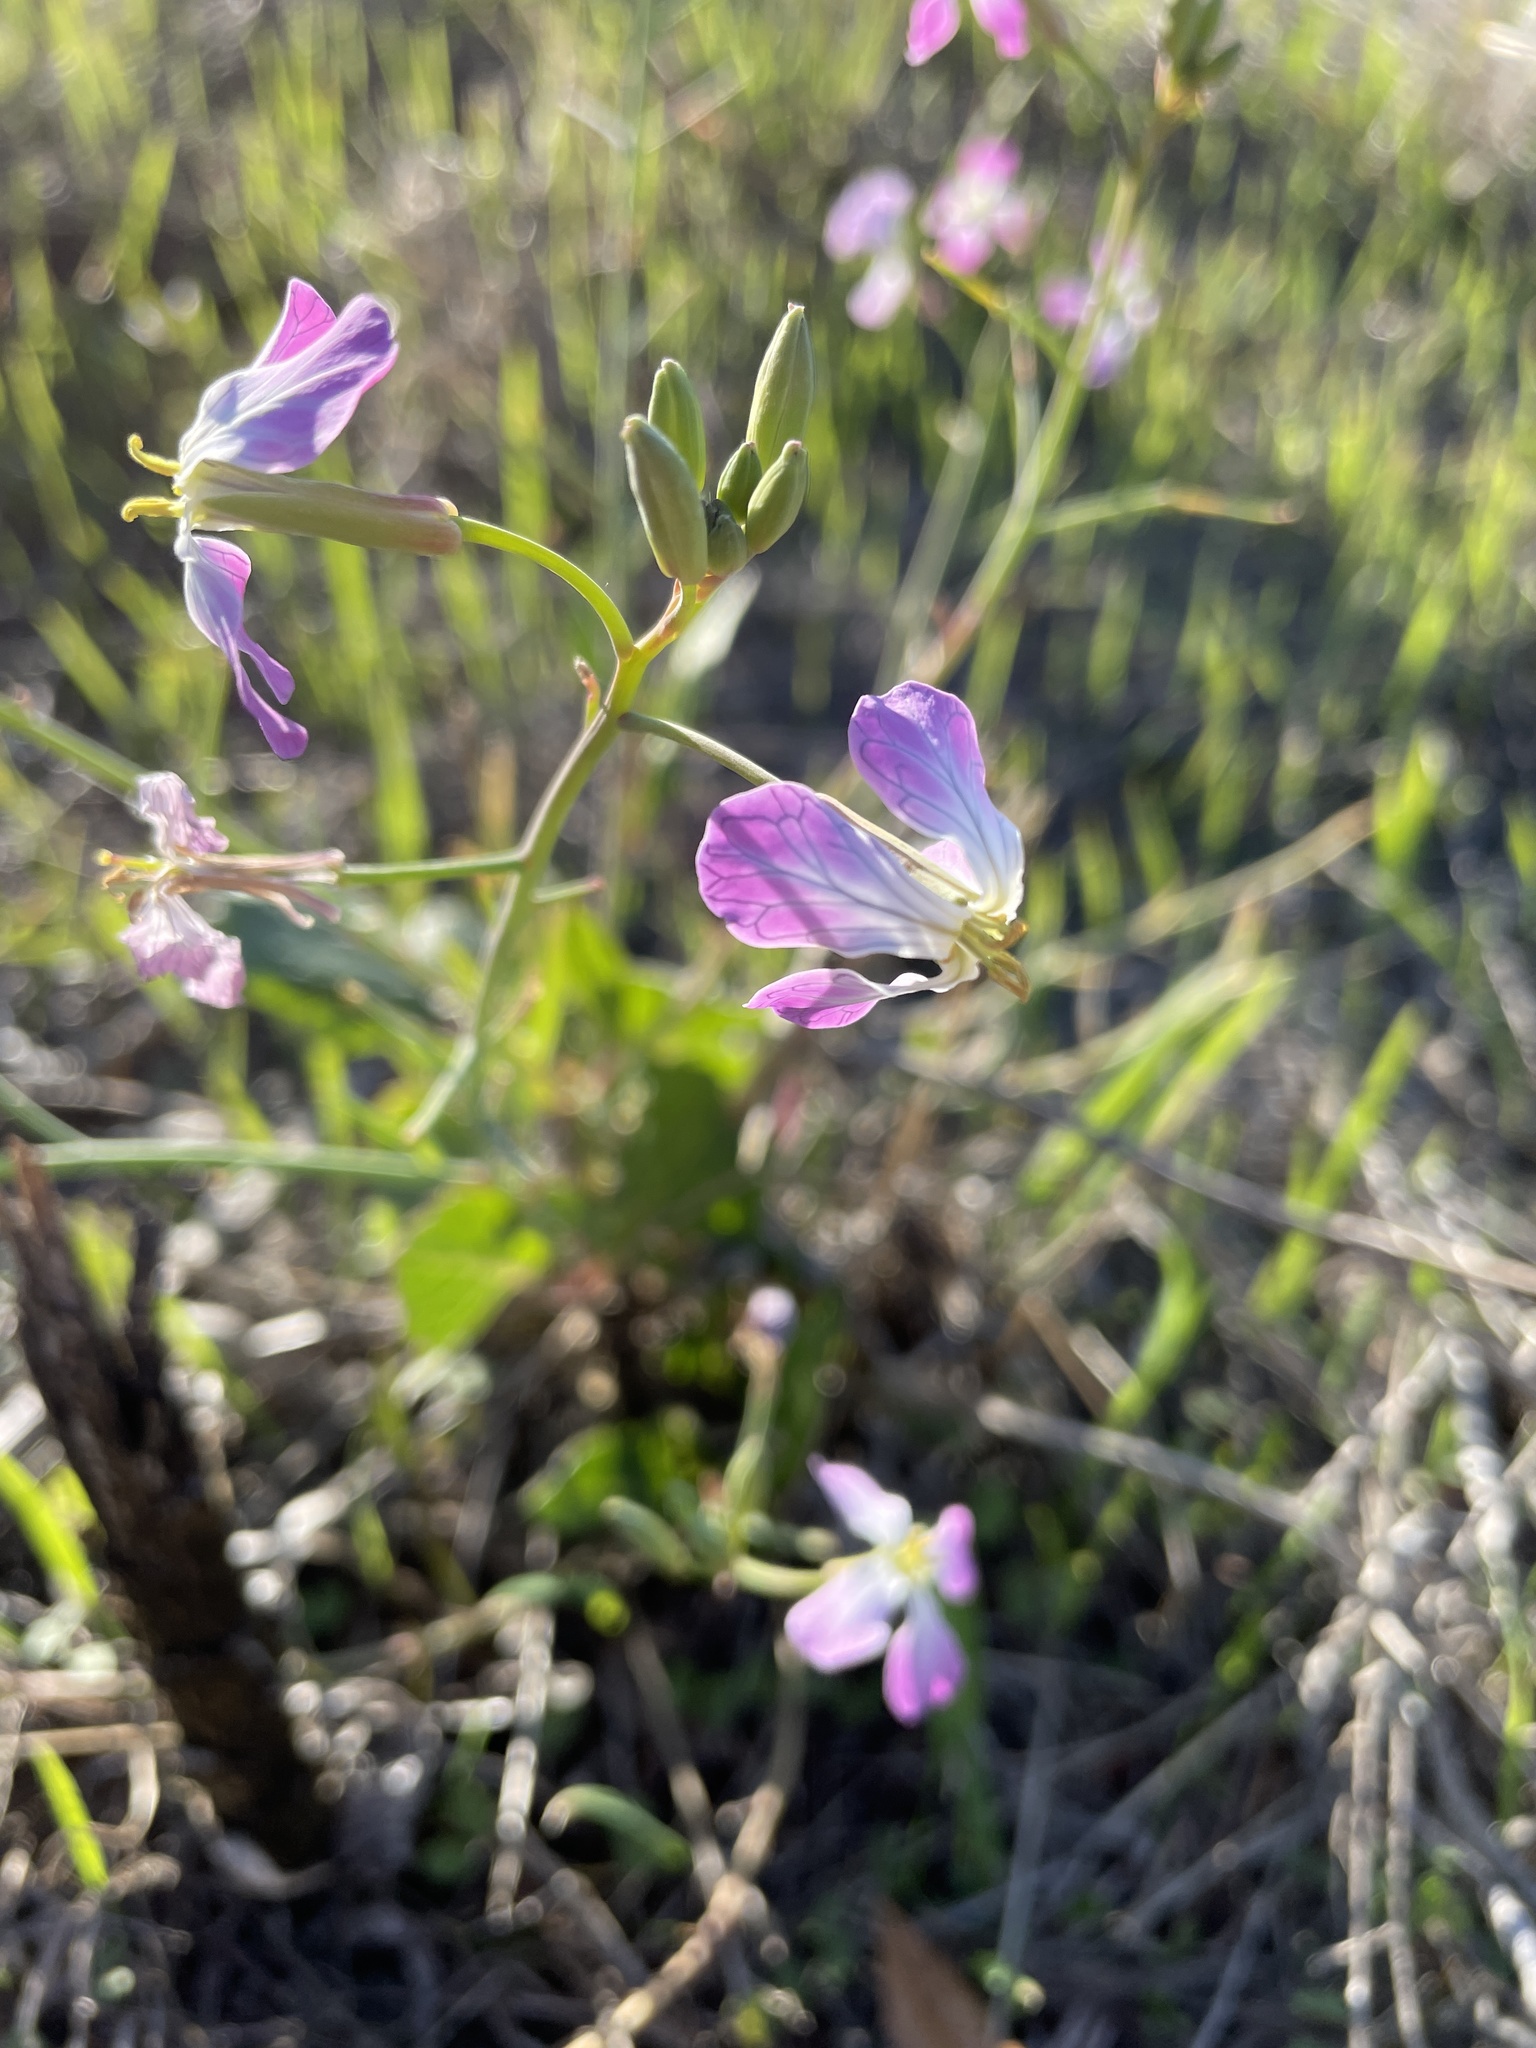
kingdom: Plantae
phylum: Tracheophyta
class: Magnoliopsida
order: Brassicales
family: Brassicaceae
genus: Raphanus
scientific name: Raphanus sativus
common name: Cultivated radish
